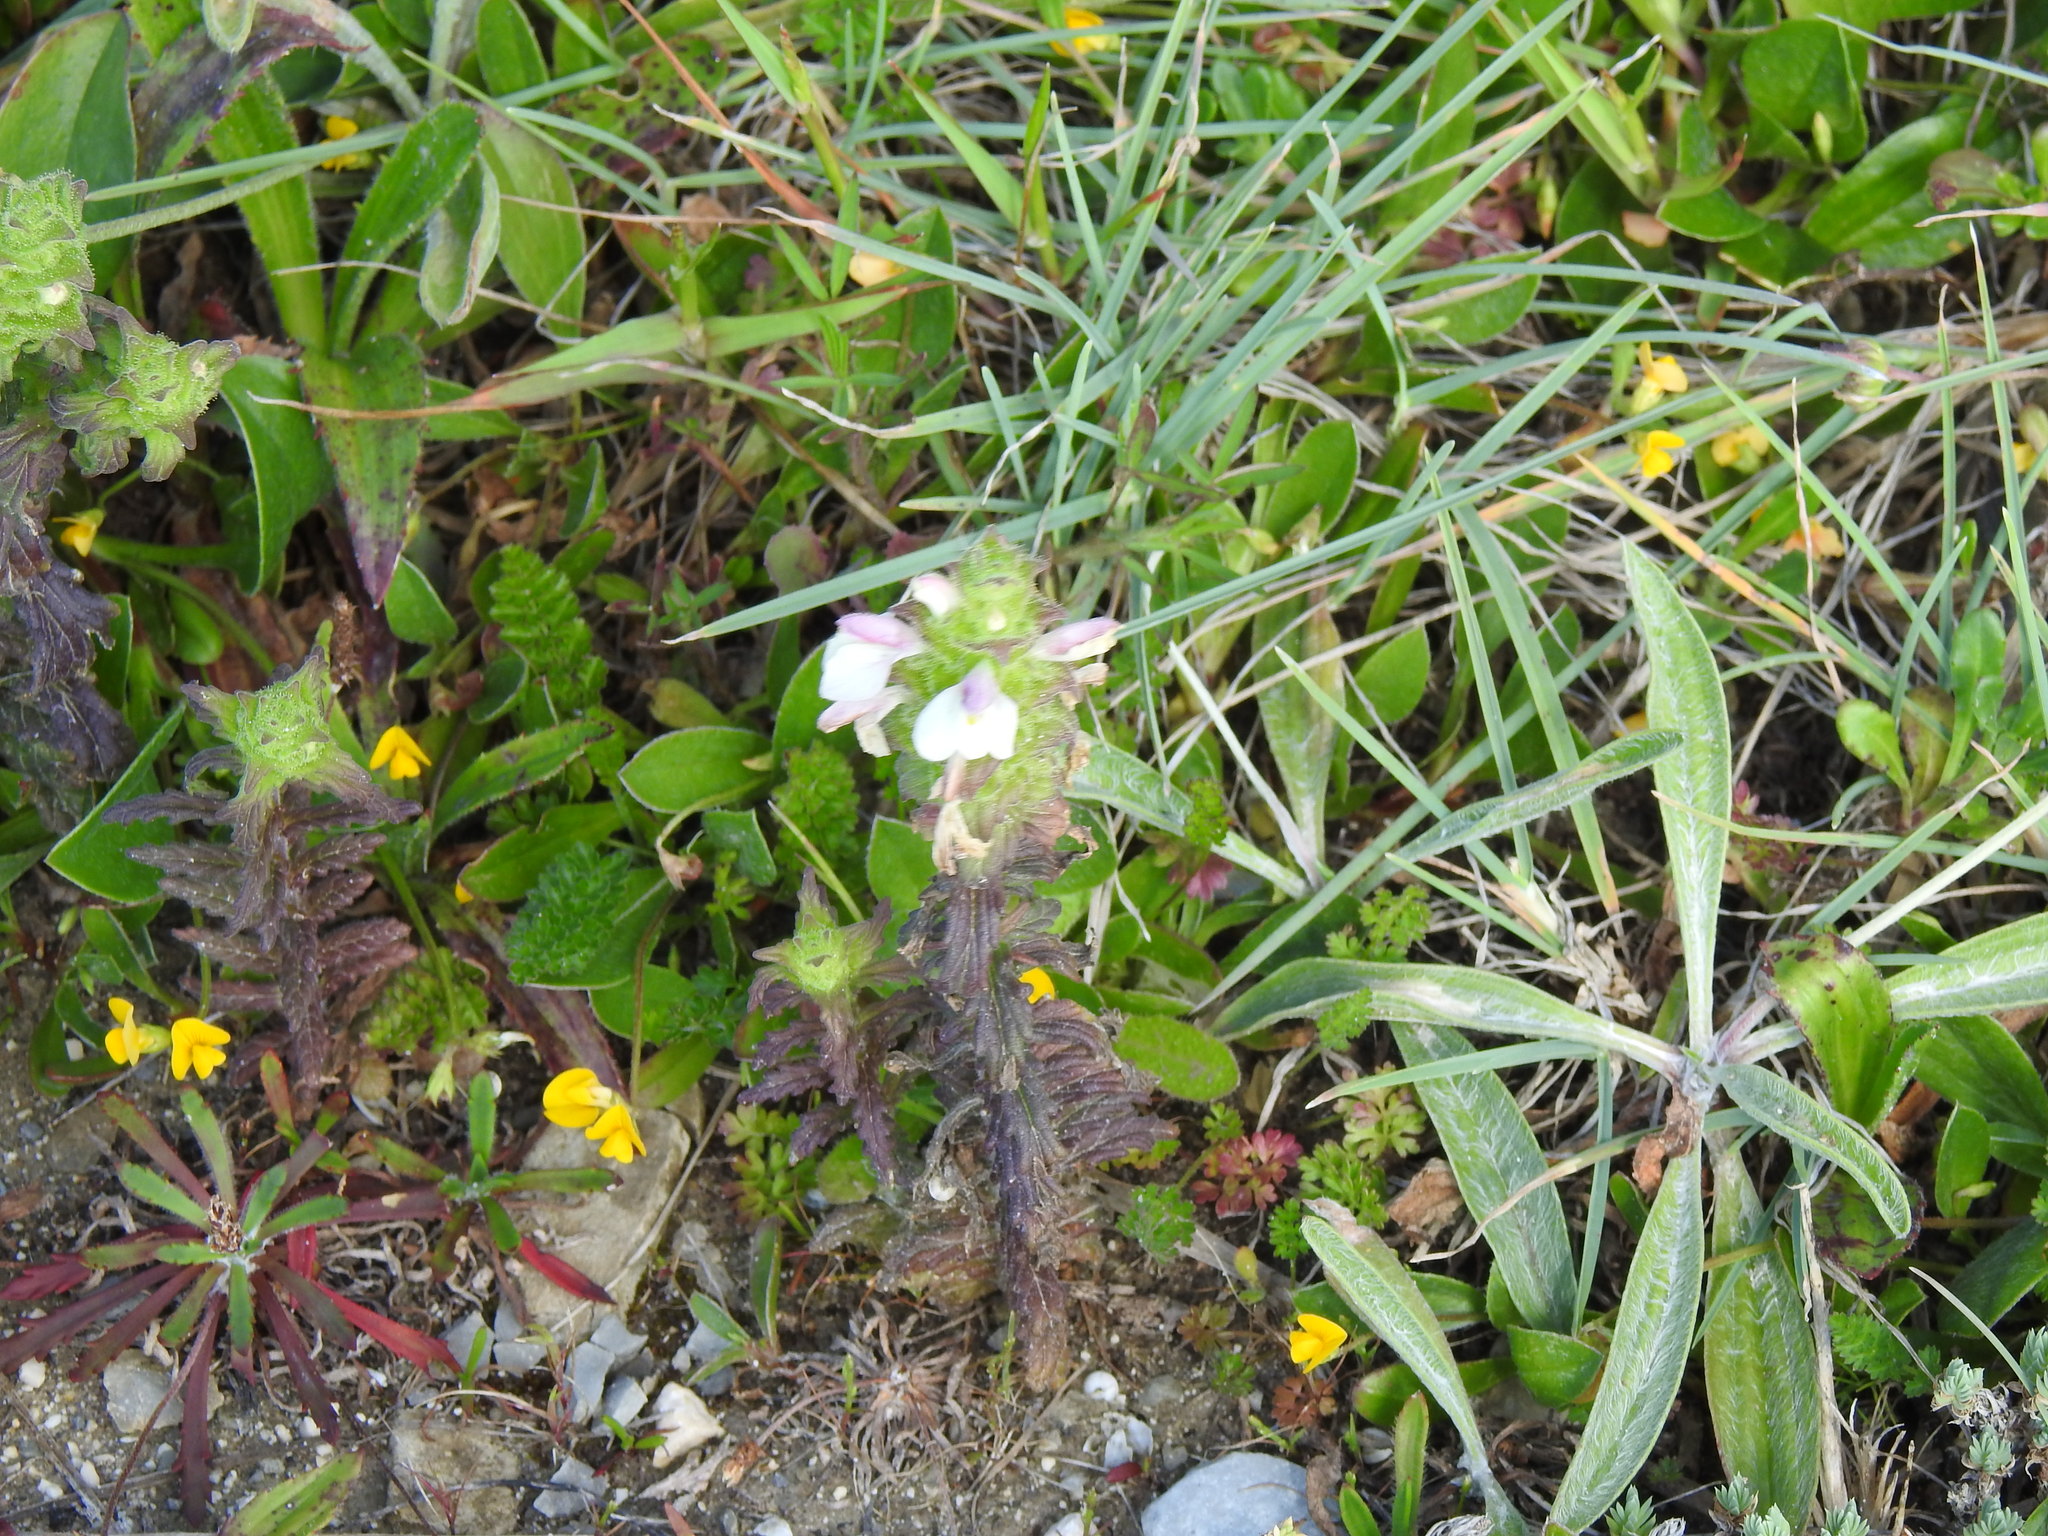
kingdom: Plantae
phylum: Tracheophyta
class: Magnoliopsida
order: Lamiales
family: Orobanchaceae
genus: Bellardia
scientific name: Bellardia trixago
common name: Mediterranean lineseed
